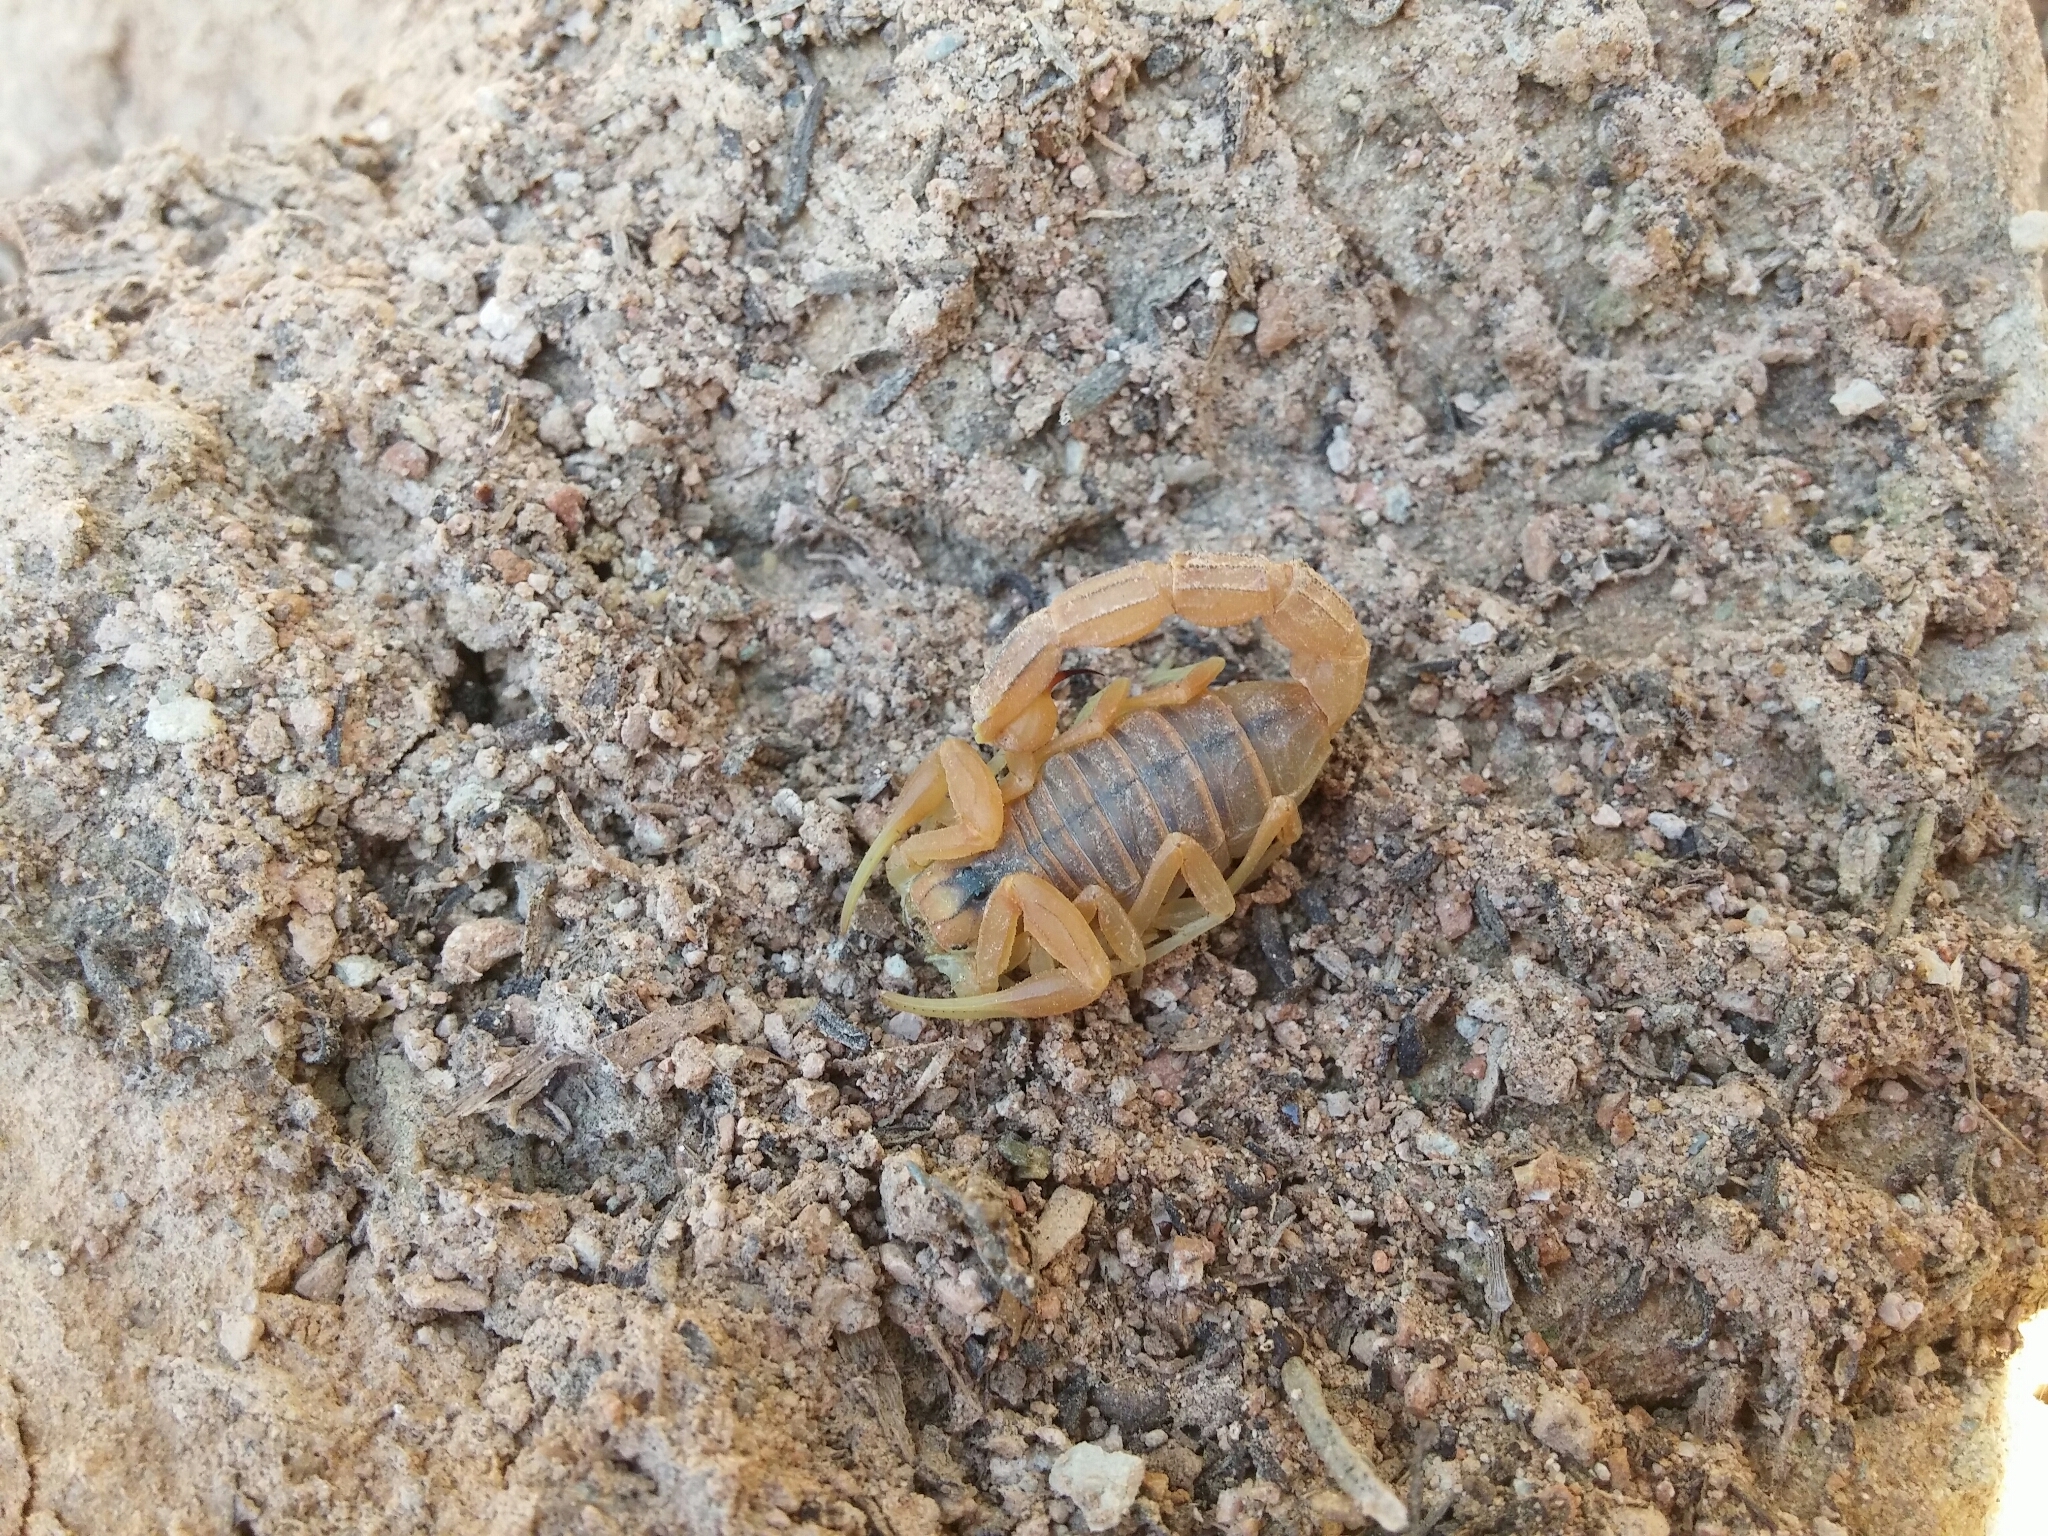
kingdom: Animalia
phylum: Arthropoda
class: Arachnida
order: Scorpiones
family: Buthidae
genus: Buthus
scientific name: Buthus occitanus
